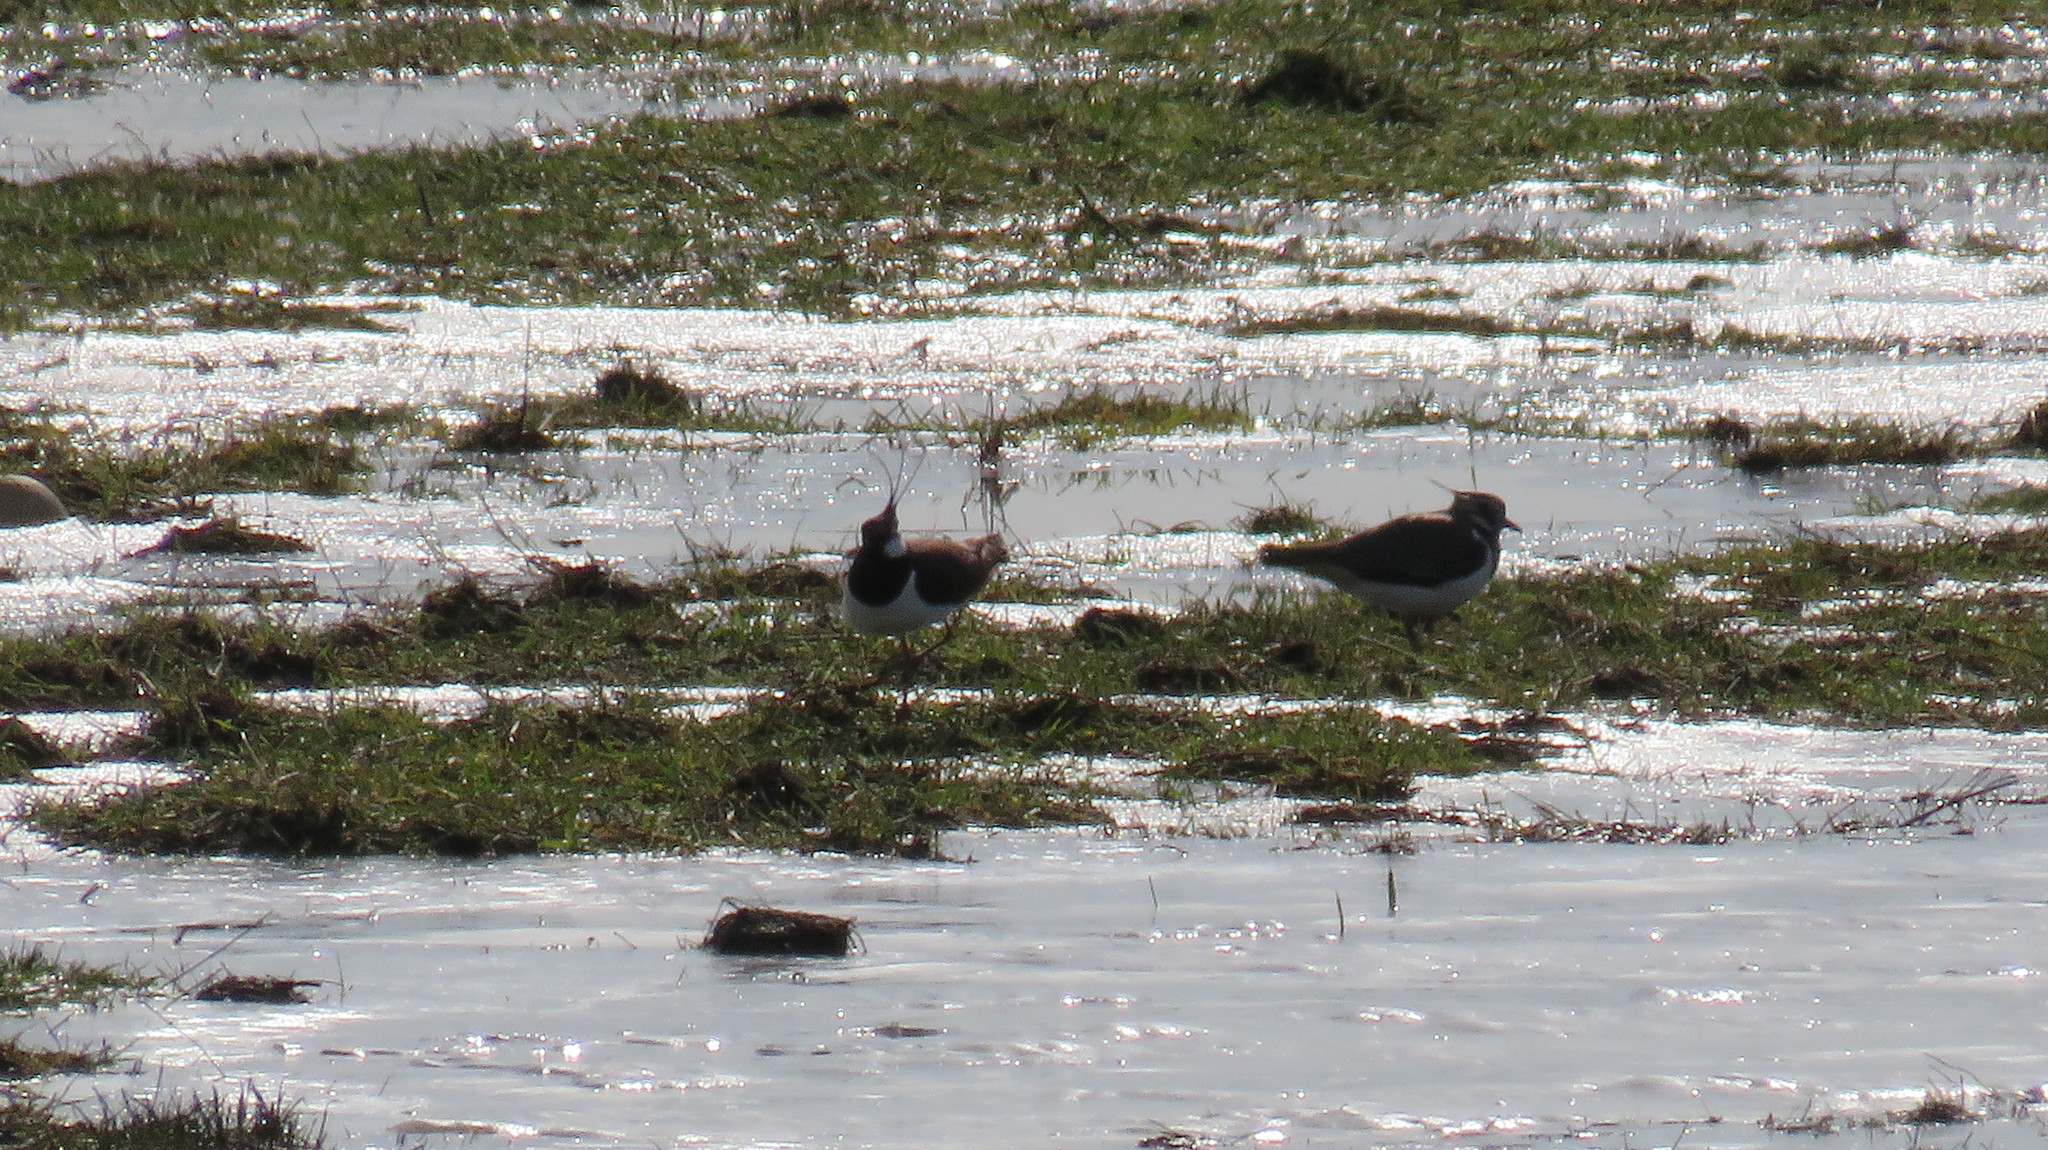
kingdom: Animalia
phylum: Chordata
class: Aves
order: Charadriiformes
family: Charadriidae
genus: Vanellus
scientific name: Vanellus vanellus
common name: Northern lapwing
